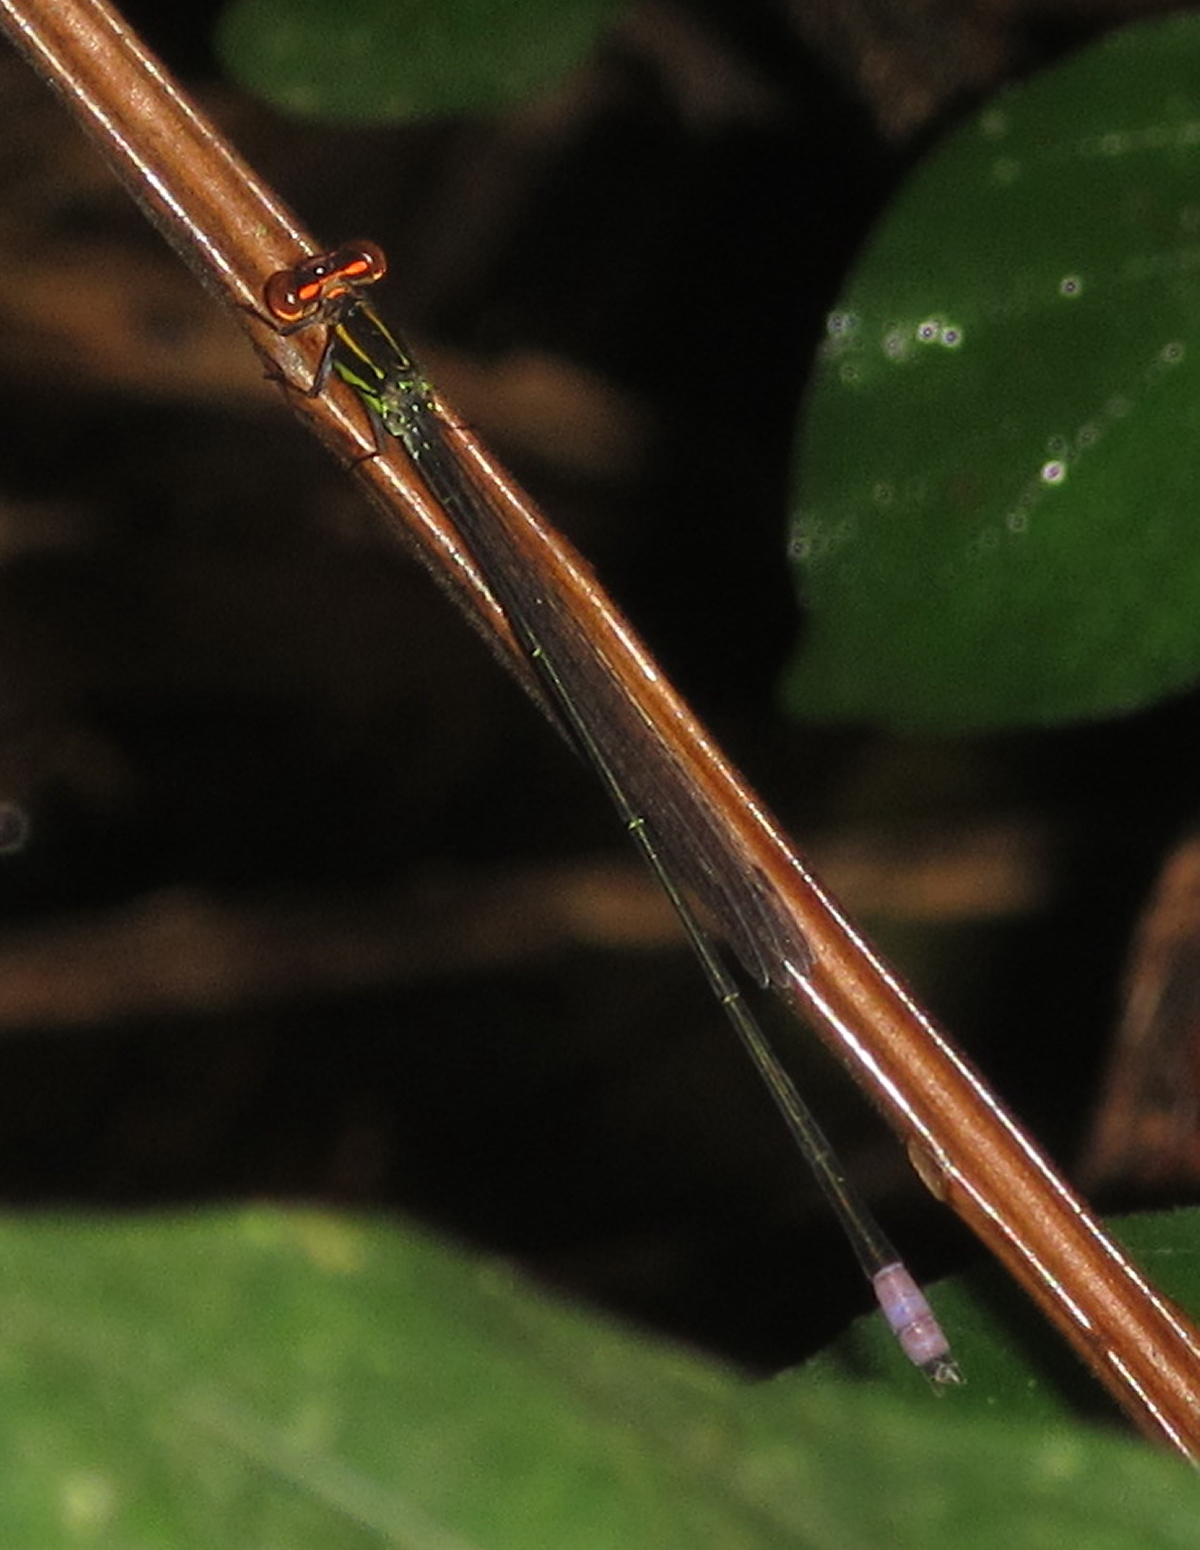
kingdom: Animalia
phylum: Arthropoda
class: Insecta
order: Odonata
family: Coenagrionidae
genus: Pseudagrion
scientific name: Pseudagrion hageni
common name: Painted sprite
